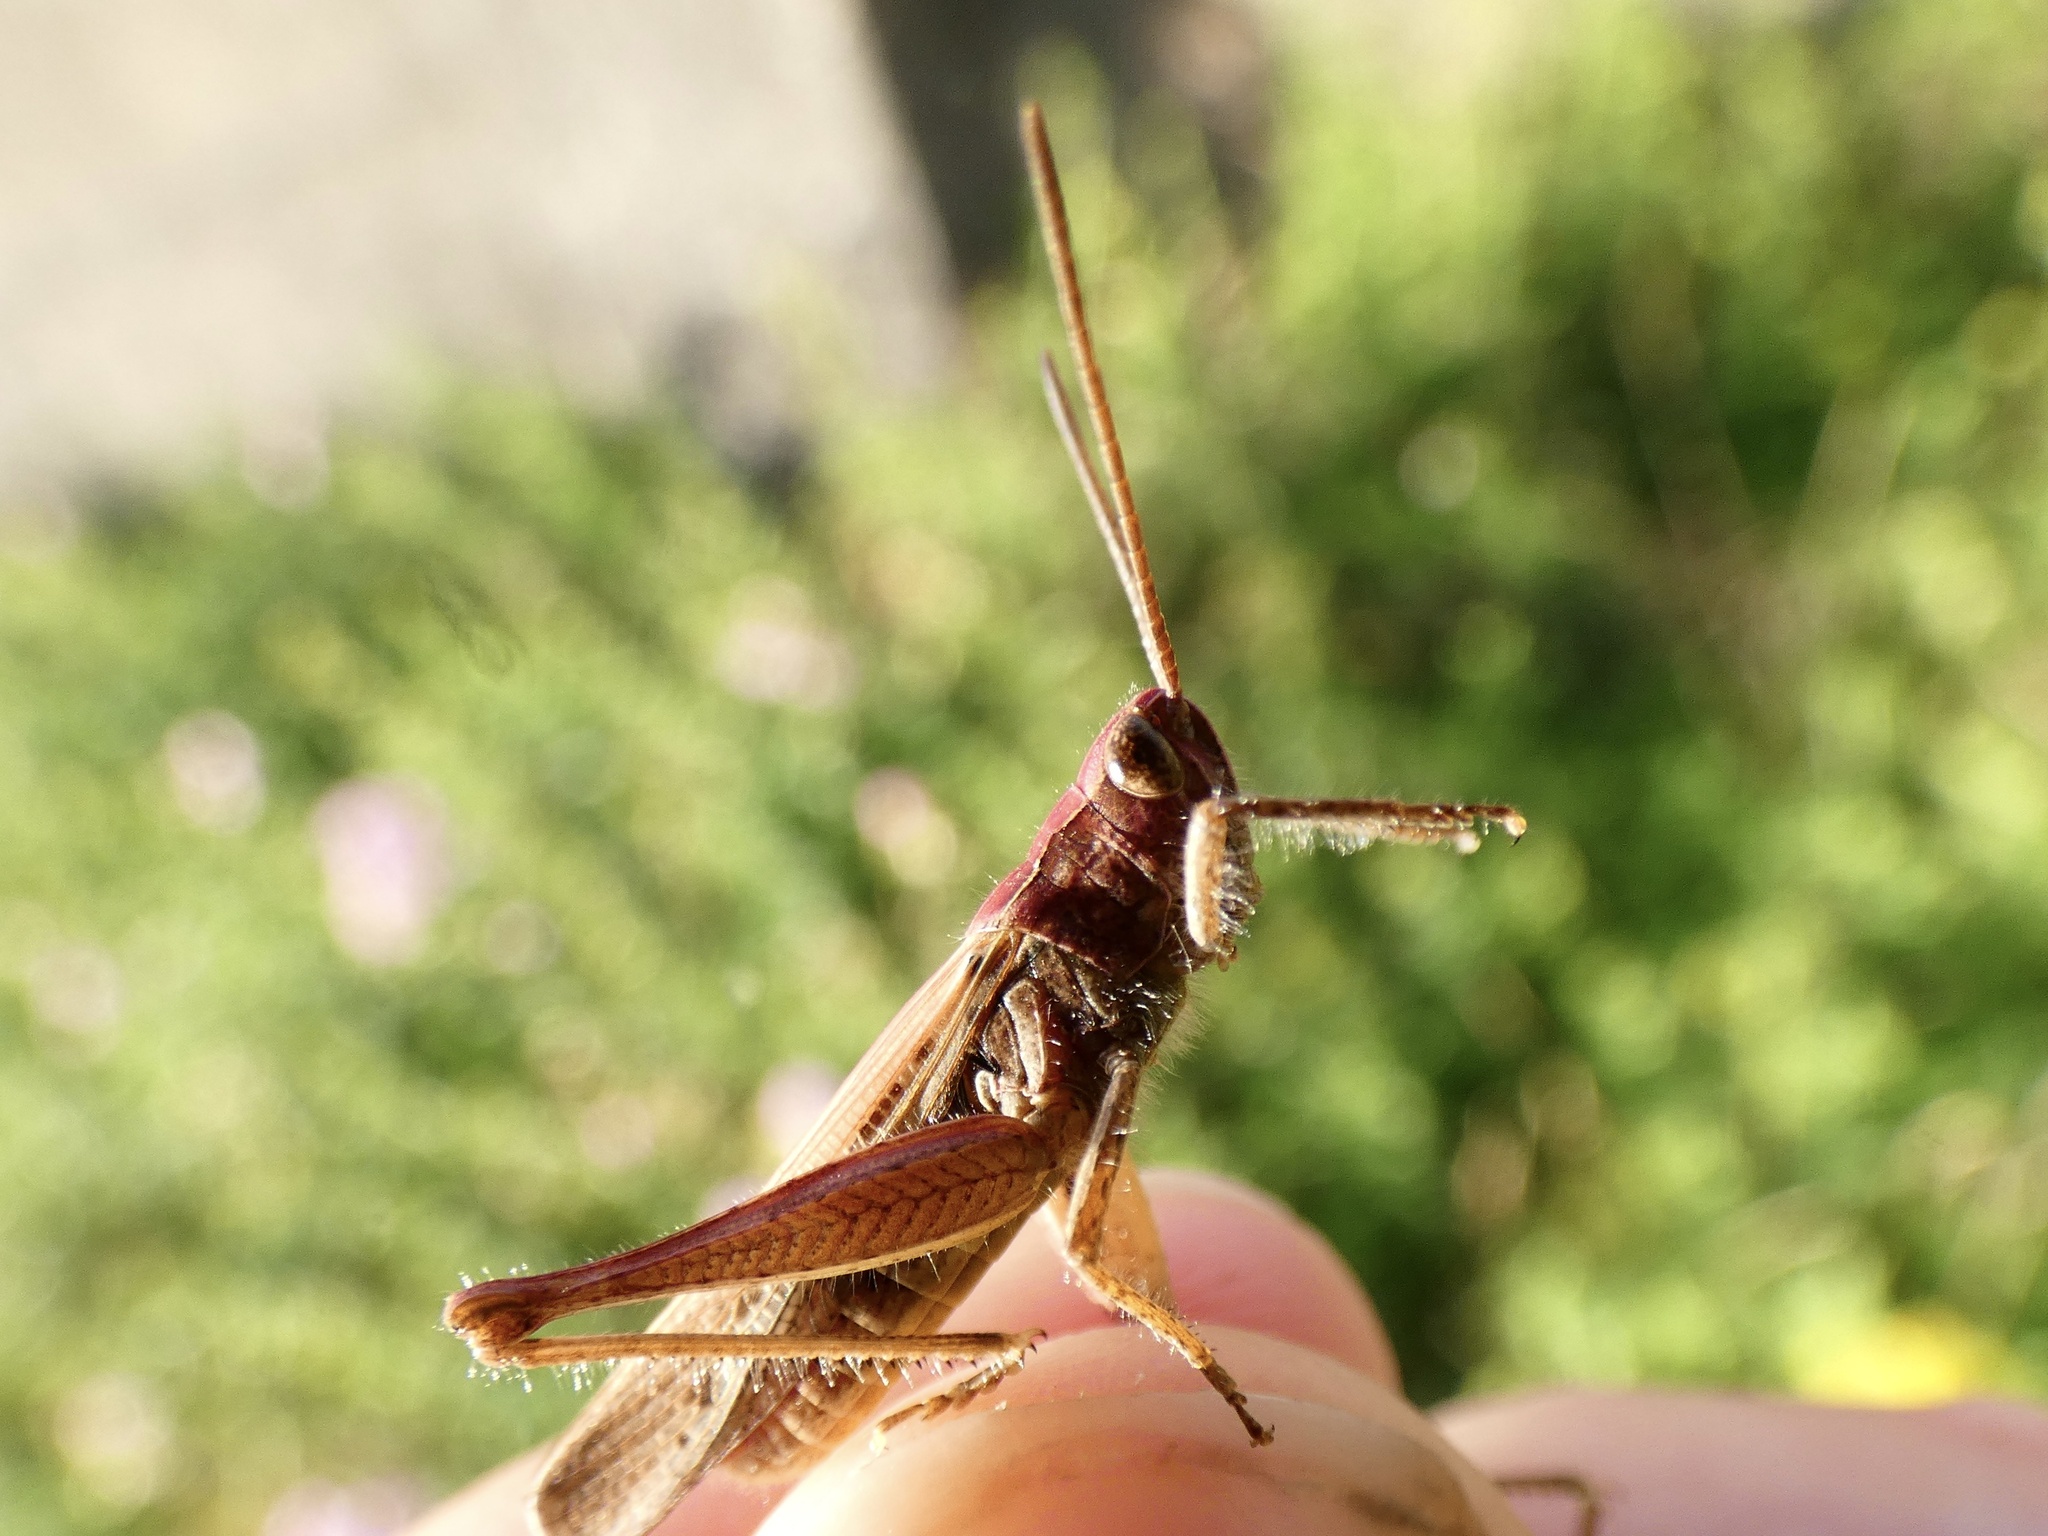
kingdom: Animalia
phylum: Arthropoda
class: Insecta
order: Orthoptera
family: Acrididae
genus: Chorthippus
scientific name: Chorthippus brunneus
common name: Field grasshopper
